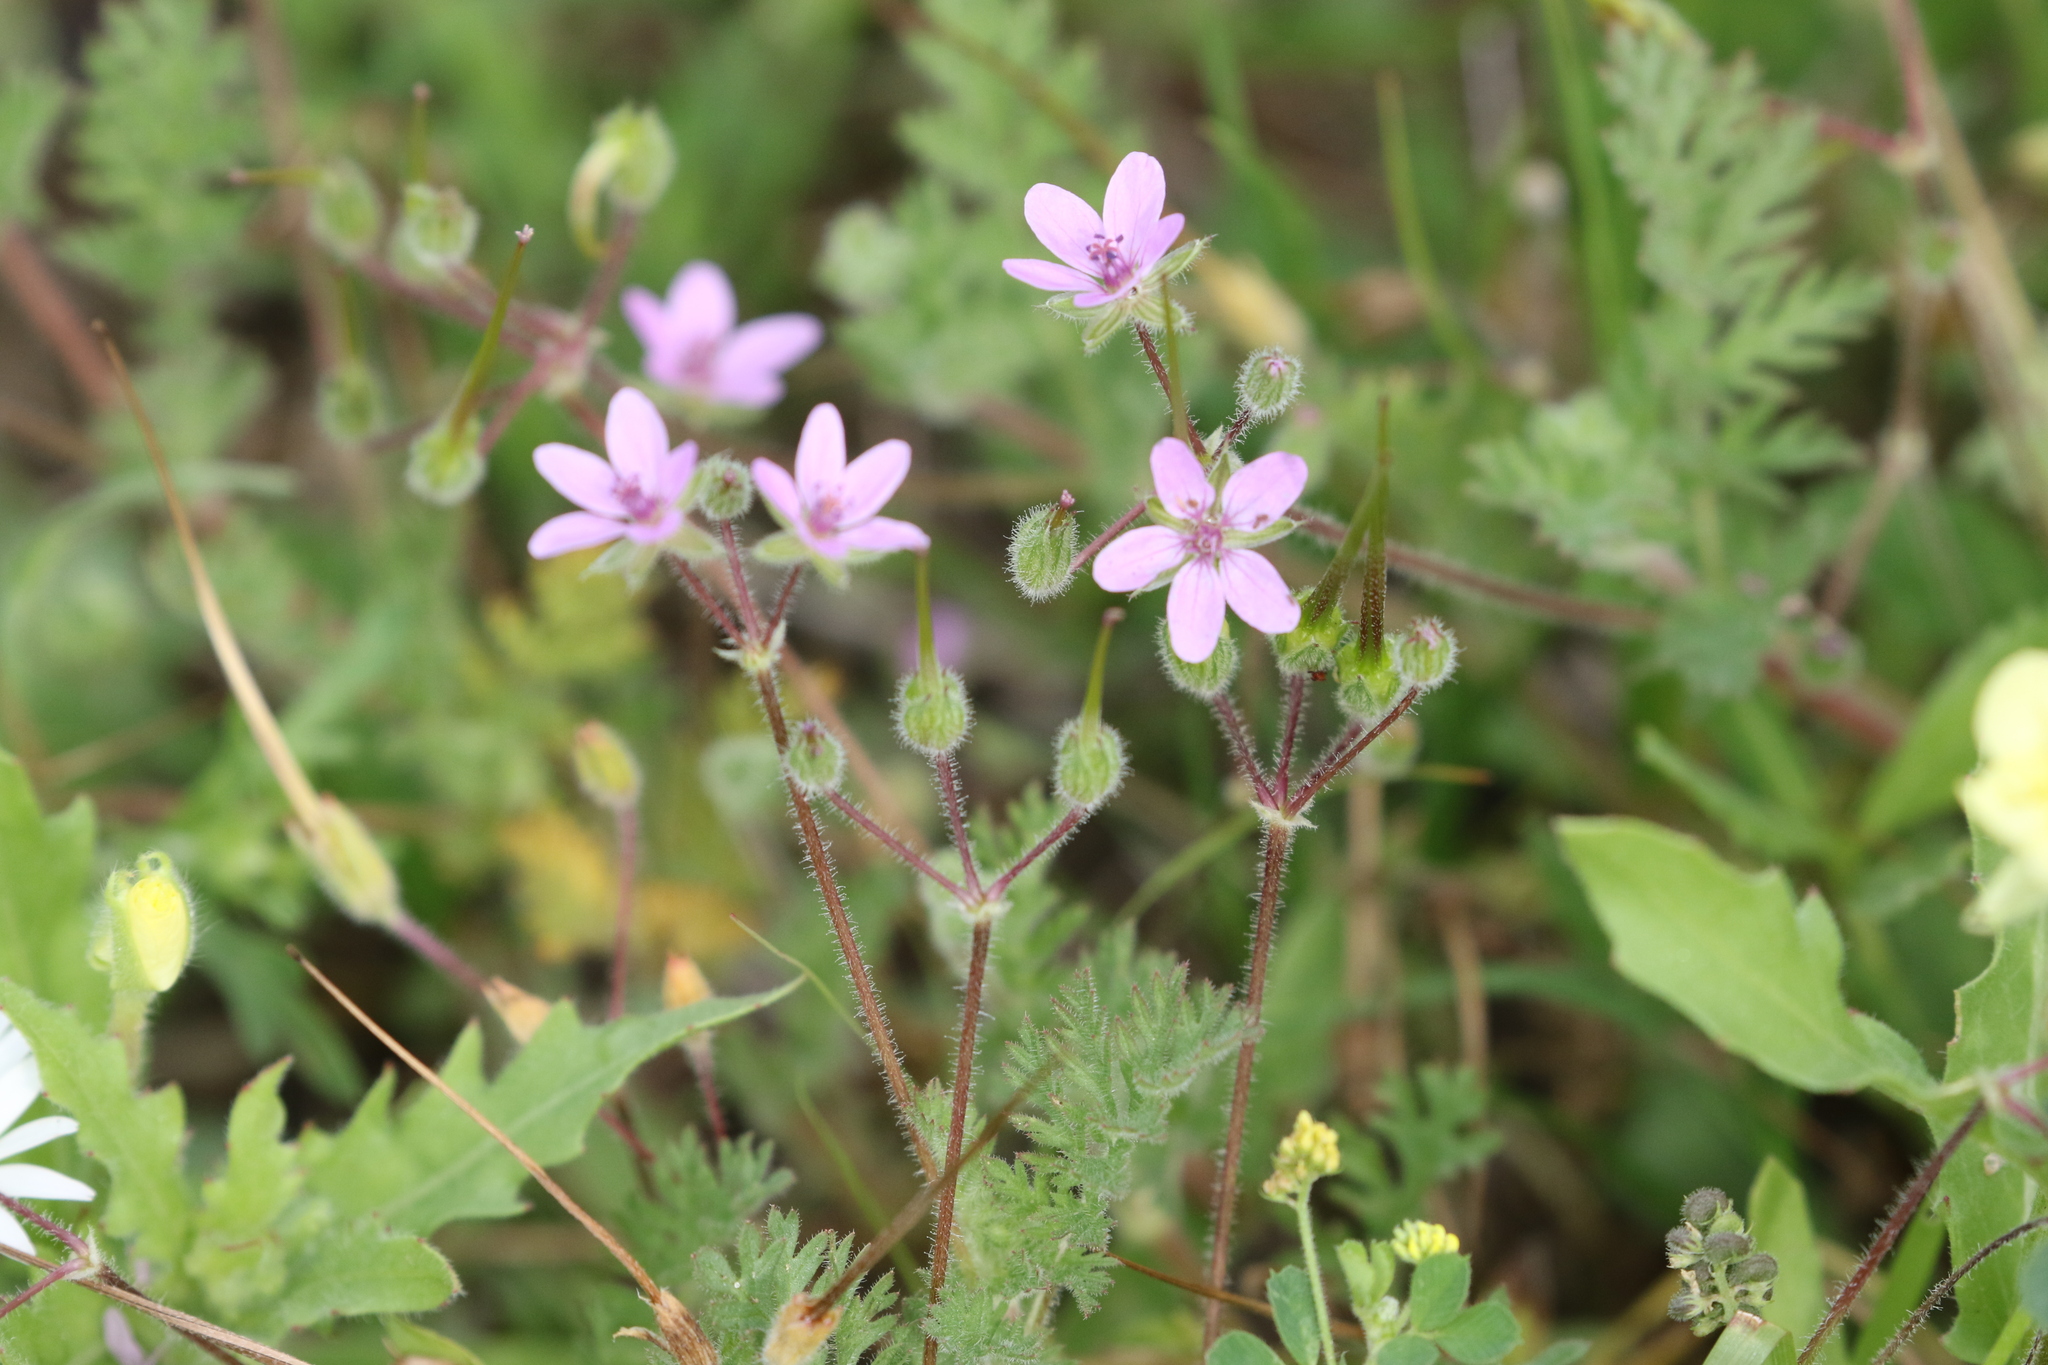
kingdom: Plantae
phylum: Tracheophyta
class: Magnoliopsida
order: Geraniales
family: Geraniaceae
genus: Erodium
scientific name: Erodium cicutarium
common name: Common stork's-bill
